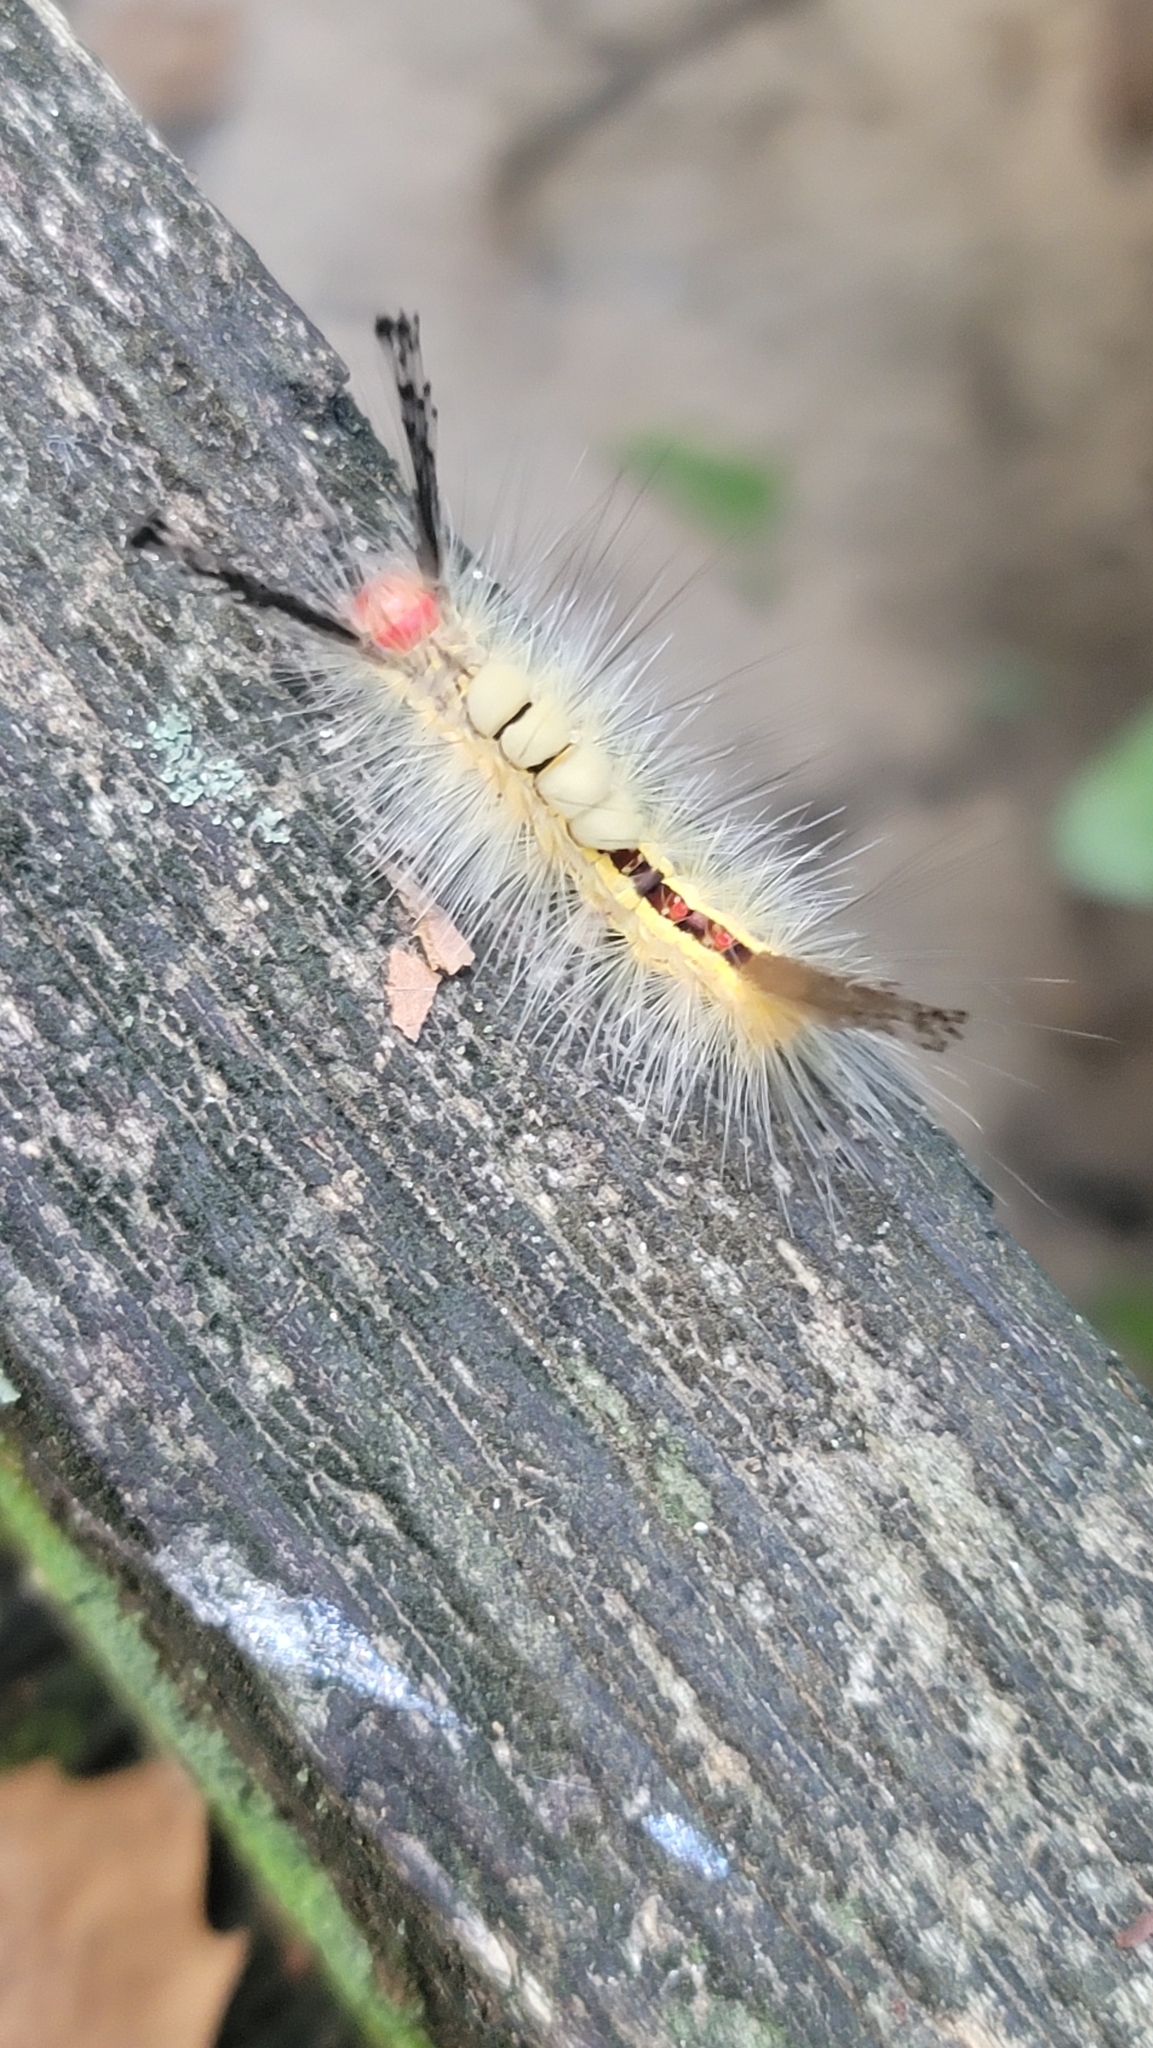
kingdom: Animalia
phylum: Arthropoda
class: Insecta
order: Lepidoptera
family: Erebidae
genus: Orgyia
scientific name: Orgyia leucostigma
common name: White-marked tussock moth
